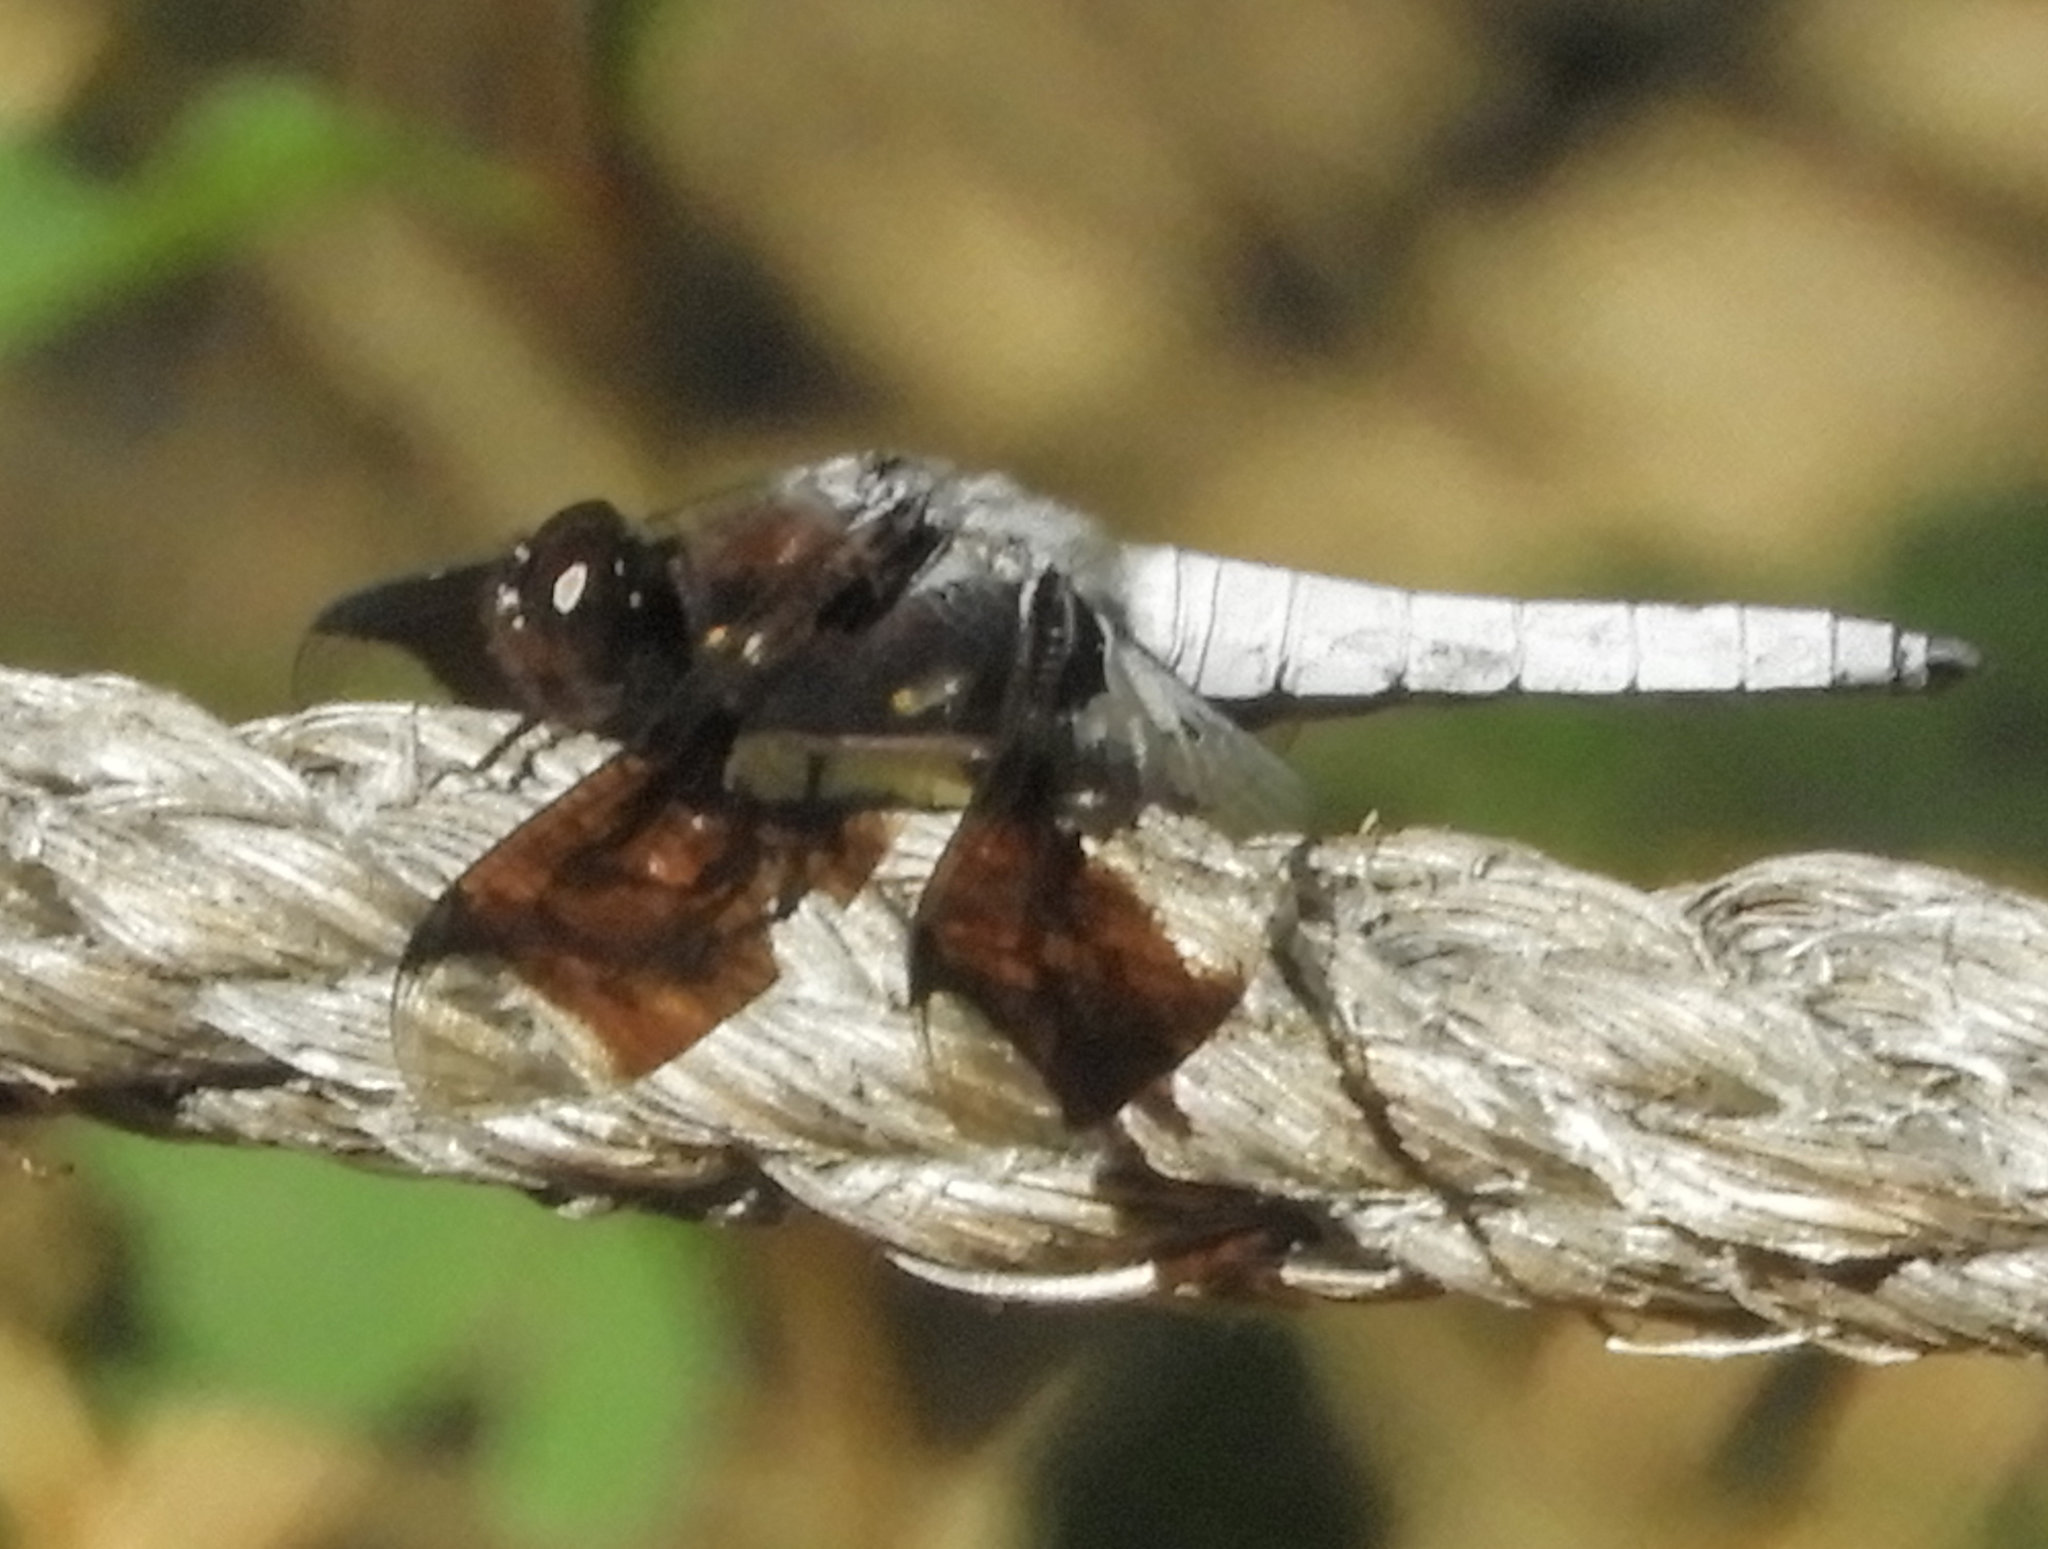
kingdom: Animalia
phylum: Arthropoda
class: Insecta
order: Odonata
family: Libellulidae
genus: Plathemis
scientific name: Plathemis lydia
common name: Common whitetail
